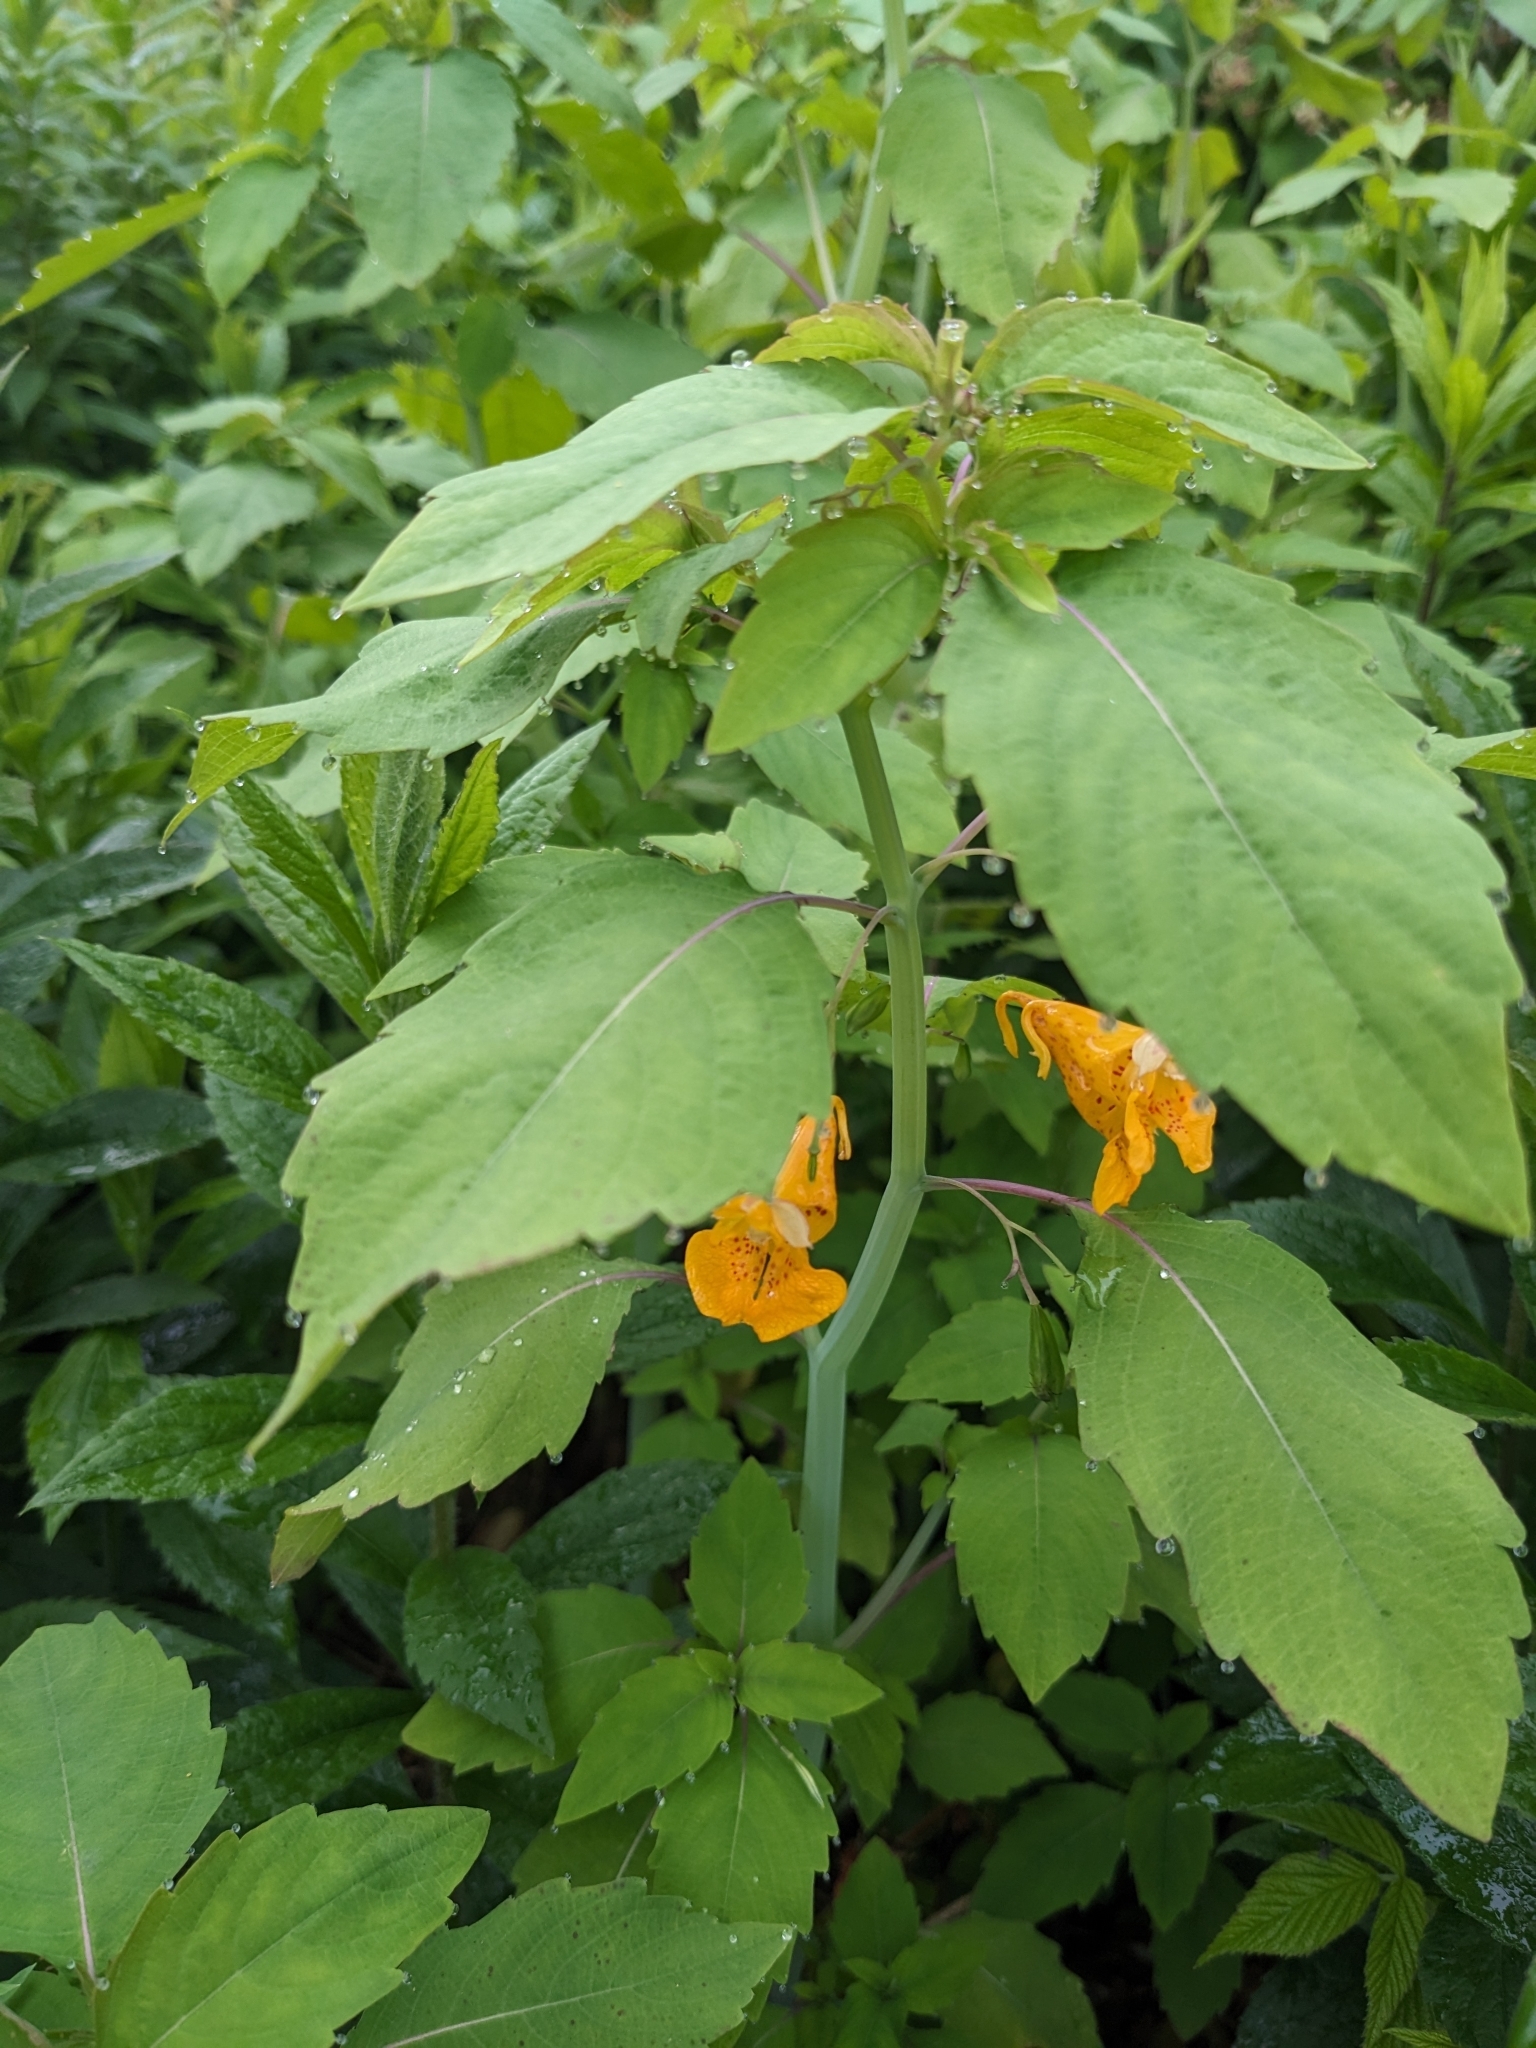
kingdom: Plantae
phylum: Tracheophyta
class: Magnoliopsida
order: Ericales
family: Balsaminaceae
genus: Impatiens
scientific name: Impatiens capensis
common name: Orange balsam
